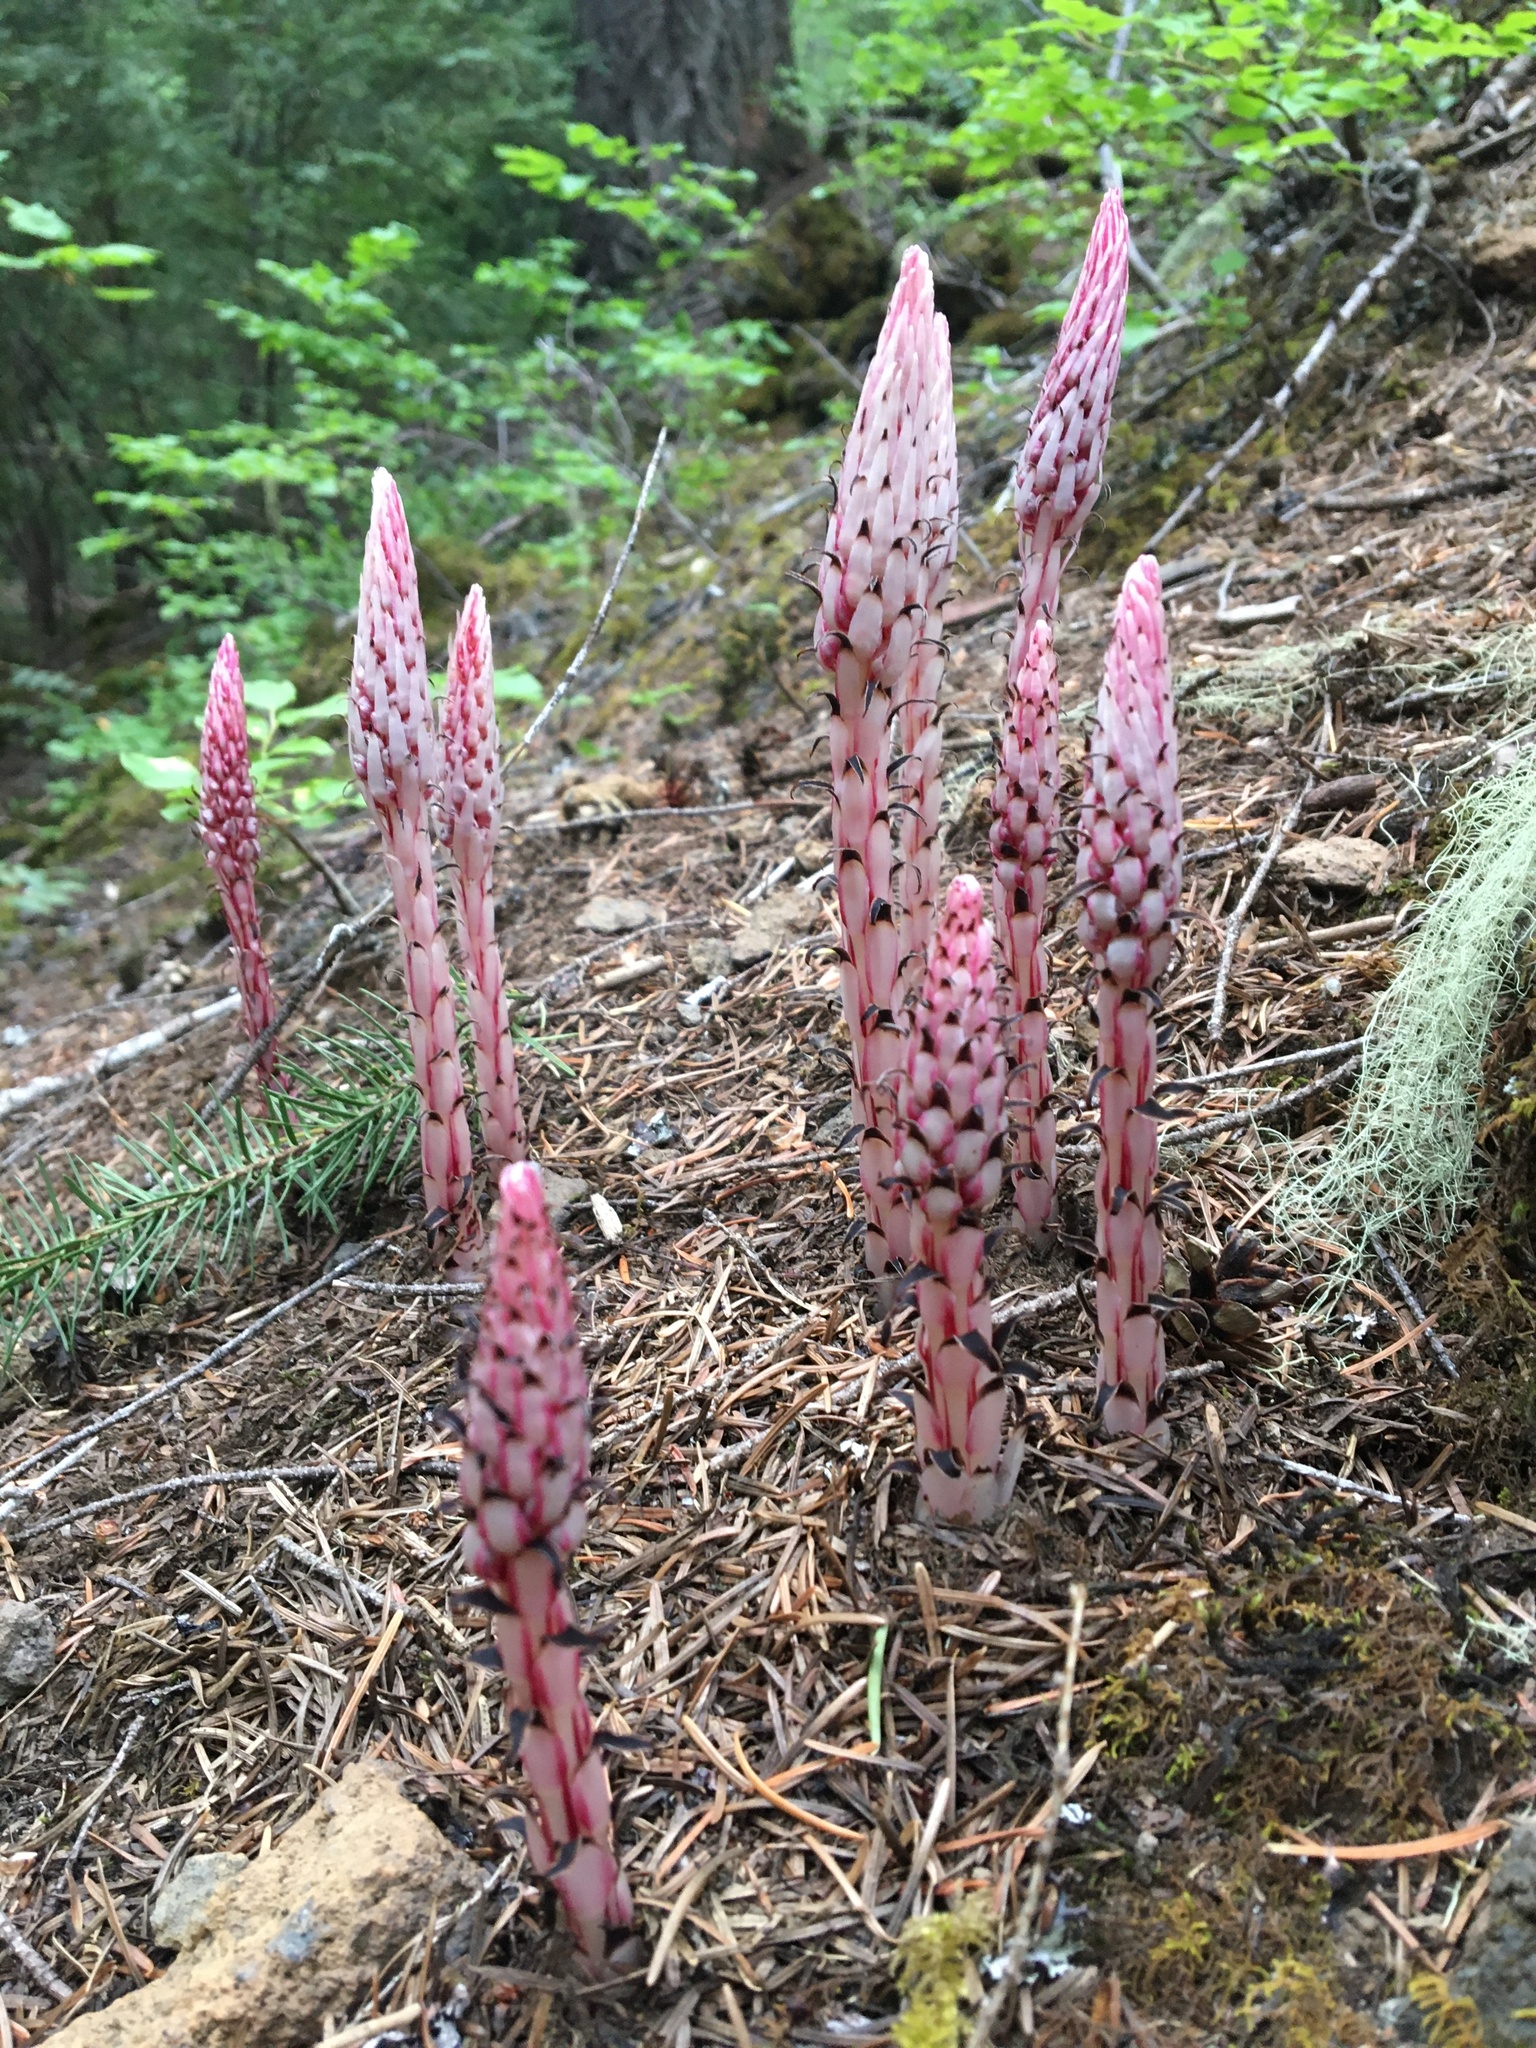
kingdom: Plantae
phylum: Tracheophyta
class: Magnoliopsida
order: Ericales
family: Ericaceae
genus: Allotropa
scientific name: Allotropa virgata
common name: Candy-striped allotropa
